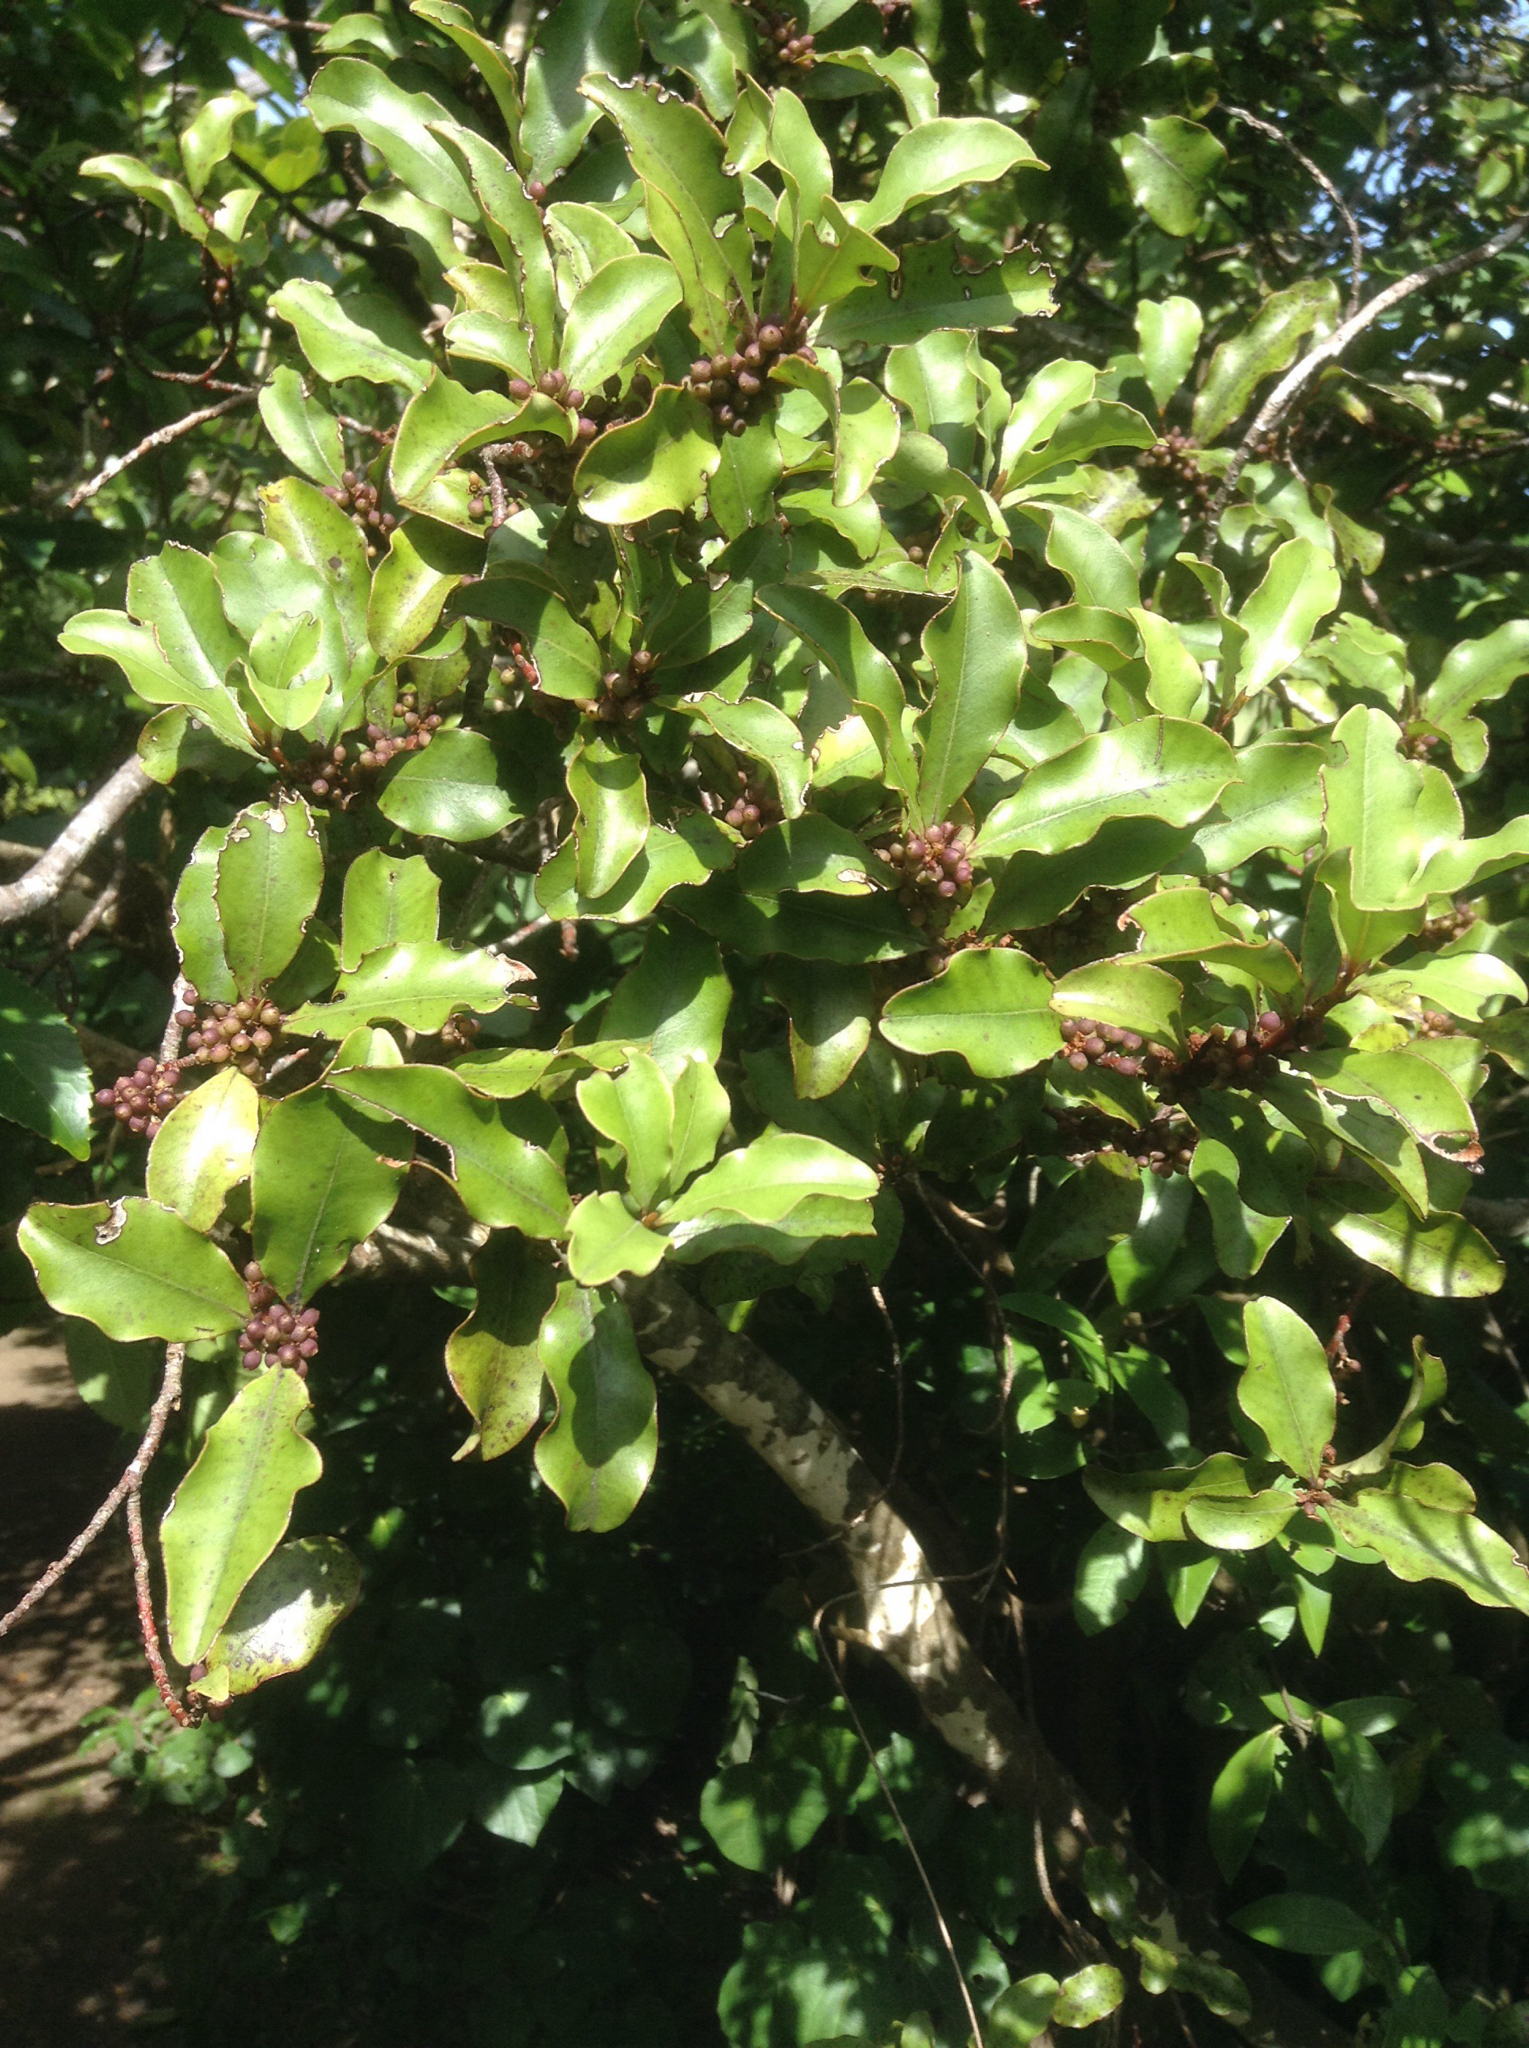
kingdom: Plantae
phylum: Tracheophyta
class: Magnoliopsida
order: Ericales
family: Primulaceae
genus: Myrsine
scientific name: Myrsine australis
